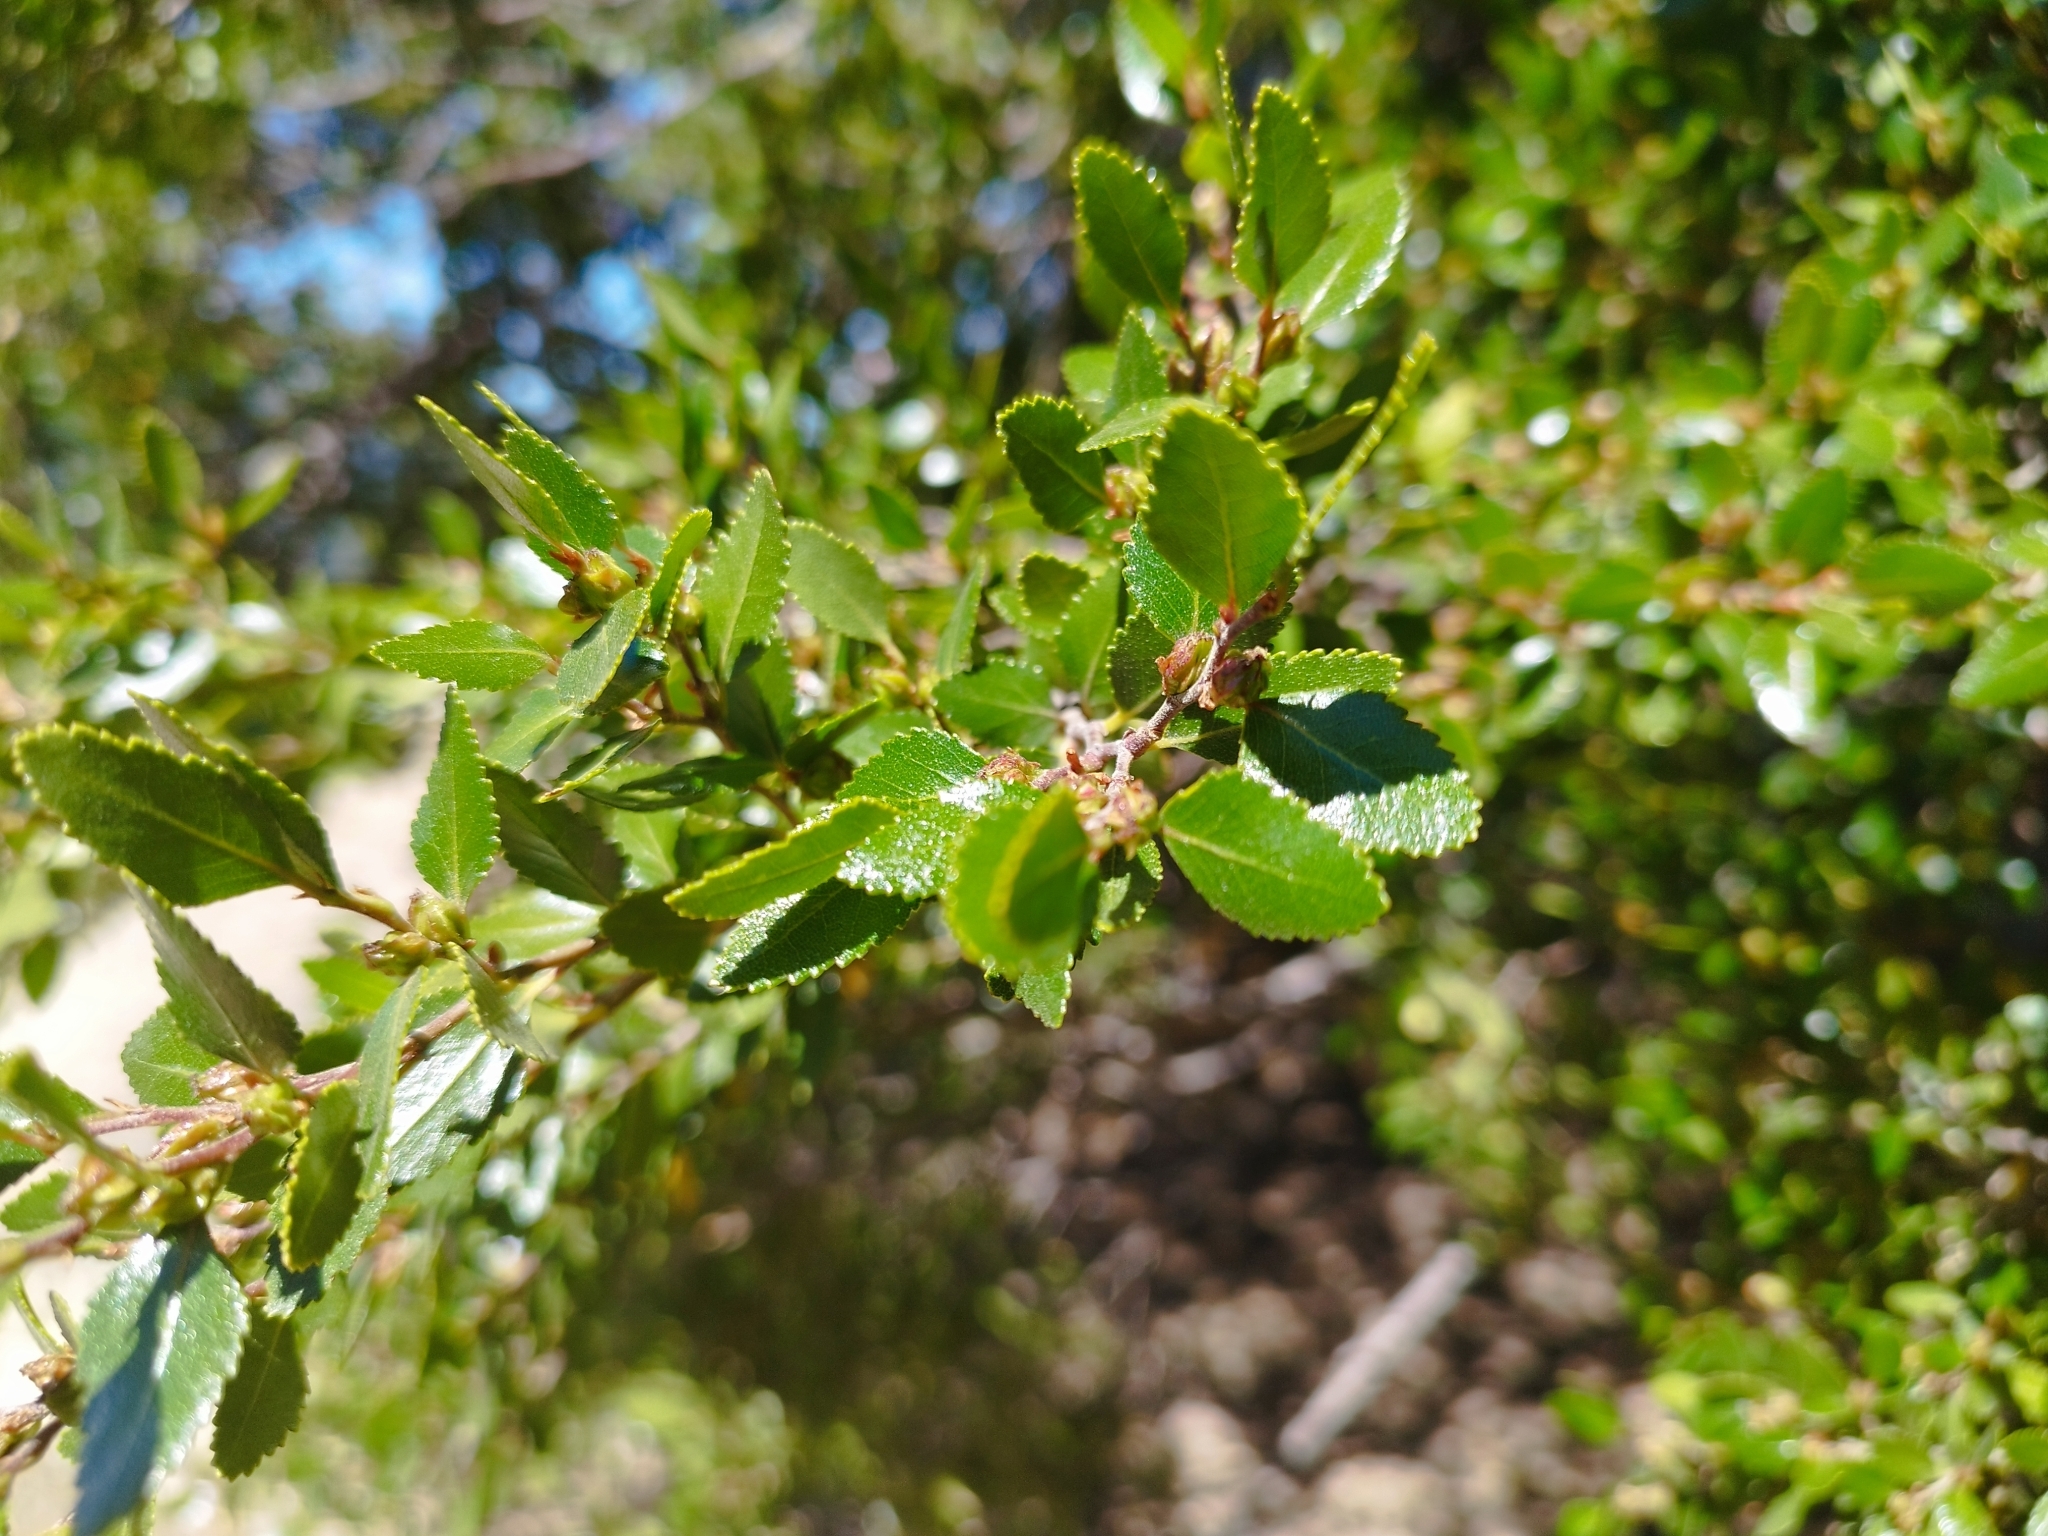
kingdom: Plantae
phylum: Tracheophyta
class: Magnoliopsida
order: Fagales
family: Nothofagaceae
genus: Nothofagus
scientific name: Nothofagus dombeyi
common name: Coigue
